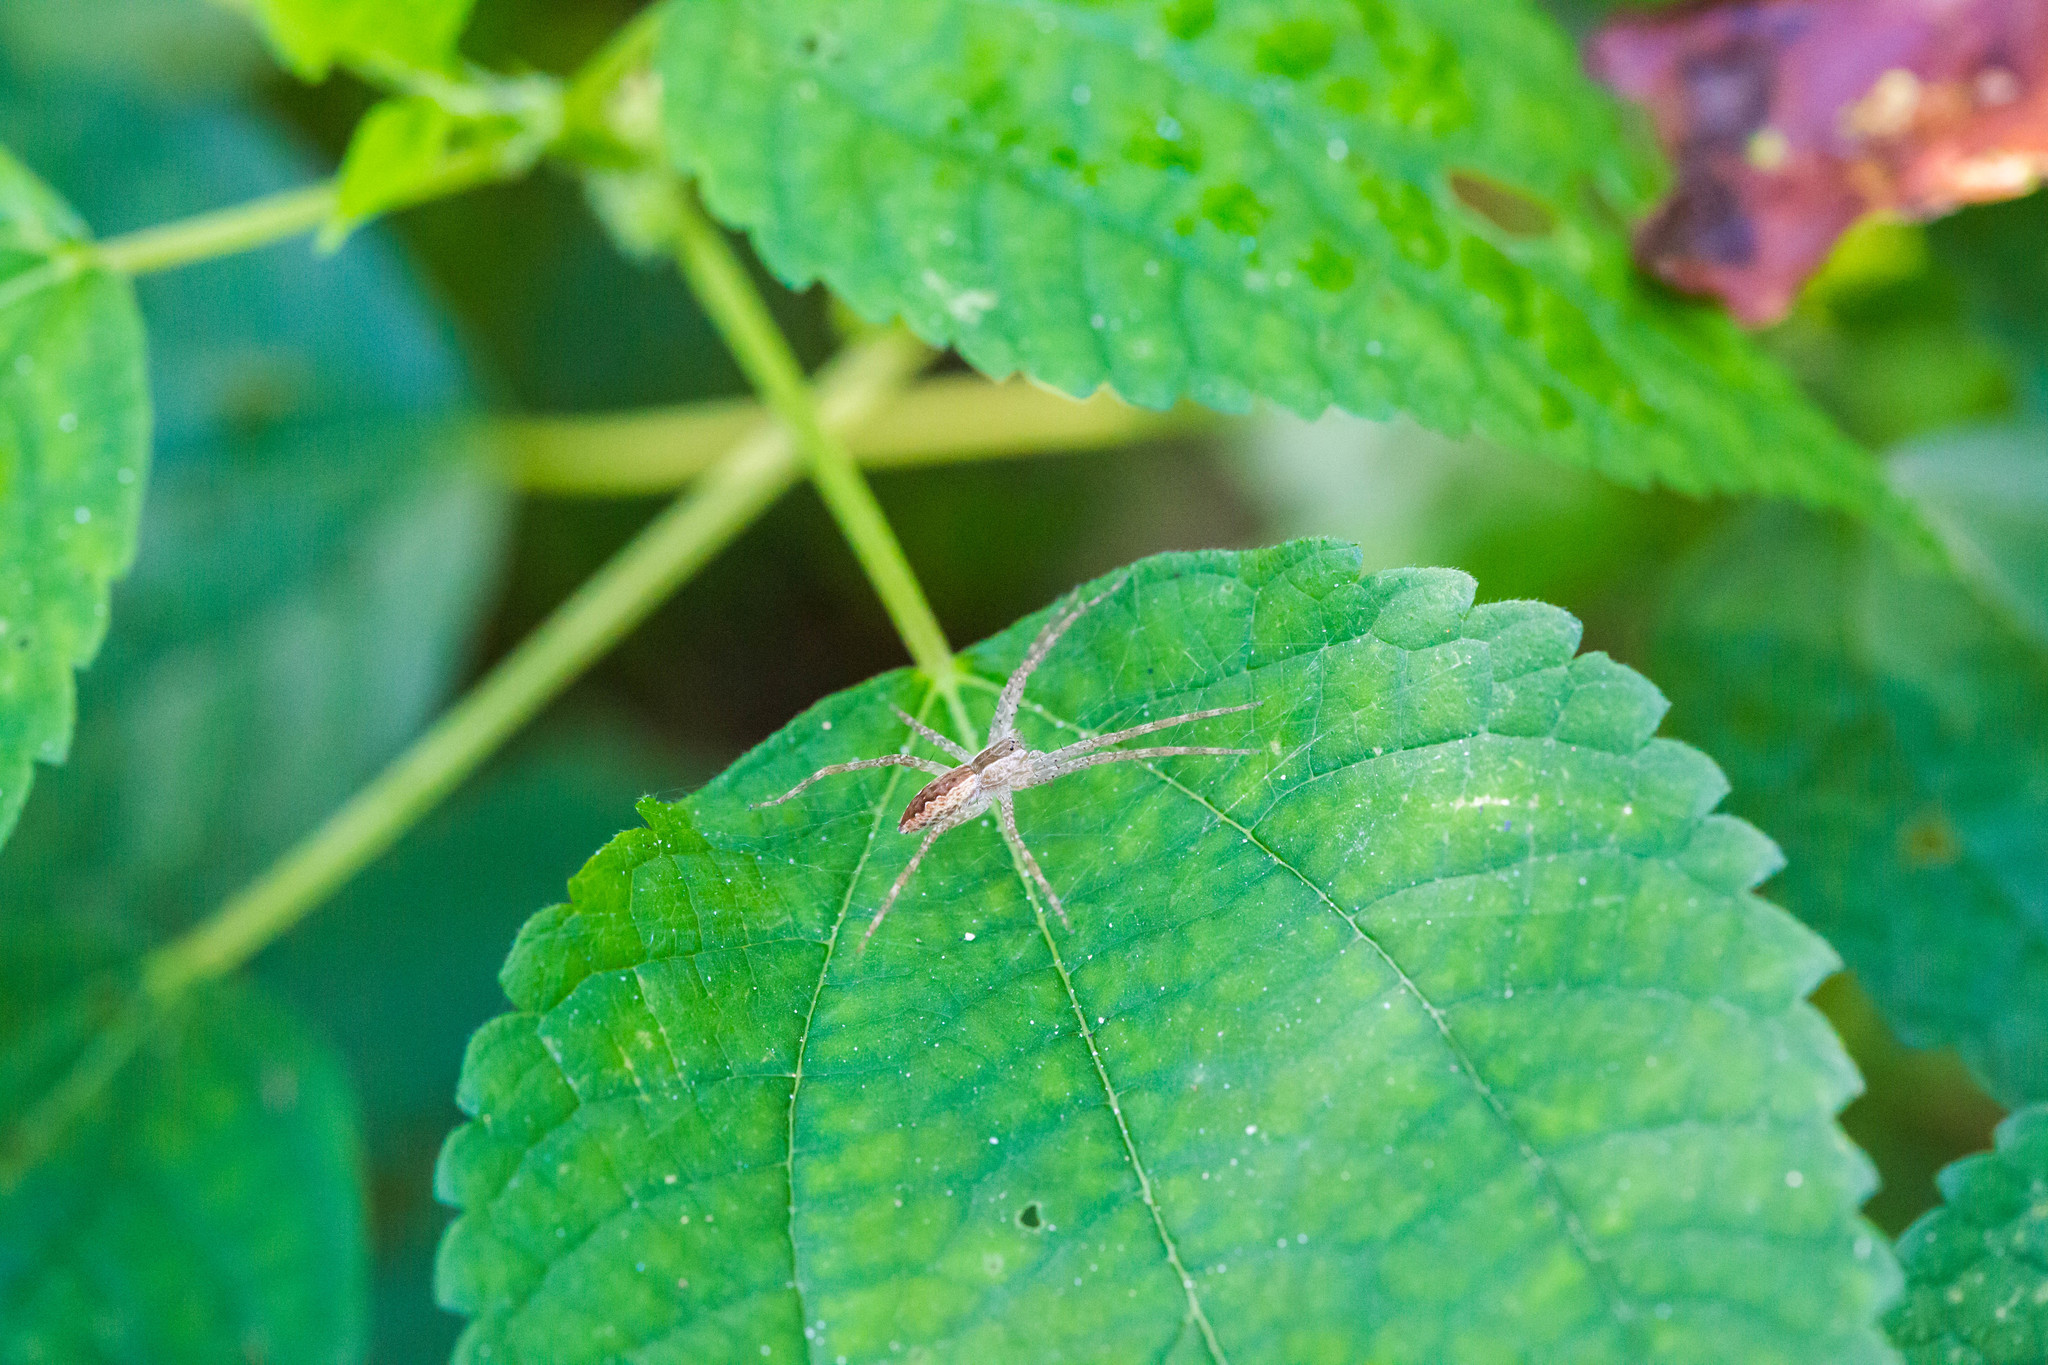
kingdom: Animalia
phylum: Arthropoda
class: Arachnida
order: Araneae
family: Pisauridae
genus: Pisaurina
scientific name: Pisaurina mira
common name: American nursery web spider
